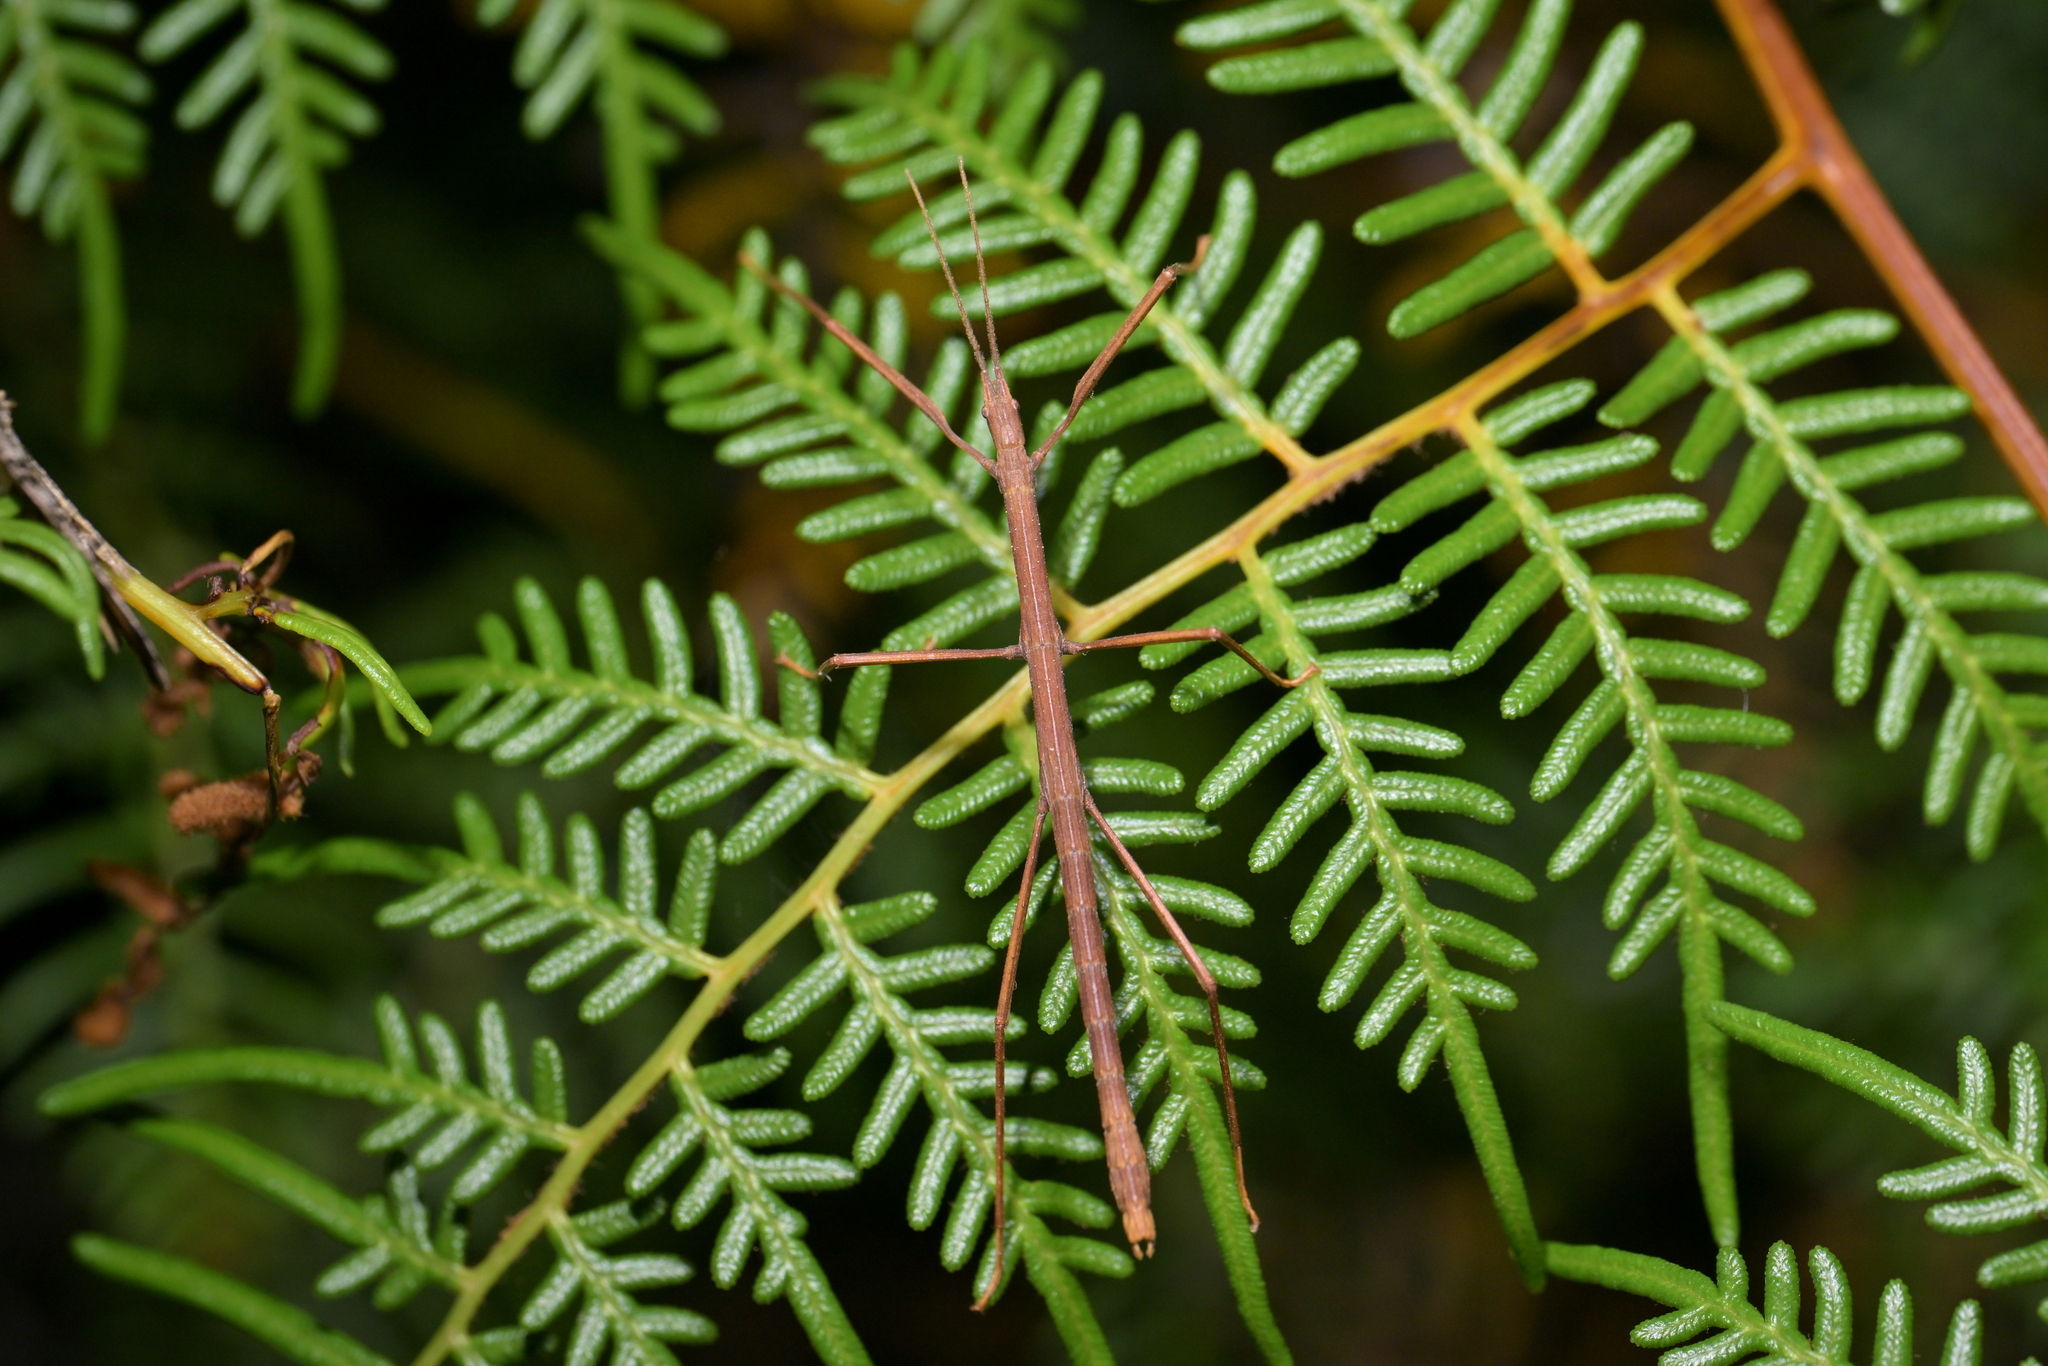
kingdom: Animalia
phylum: Arthropoda
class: Insecta
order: Phasmida
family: Phasmatidae
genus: Tectarchus
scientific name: Tectarchus huttoni
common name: The common ridge-backed stick insect
